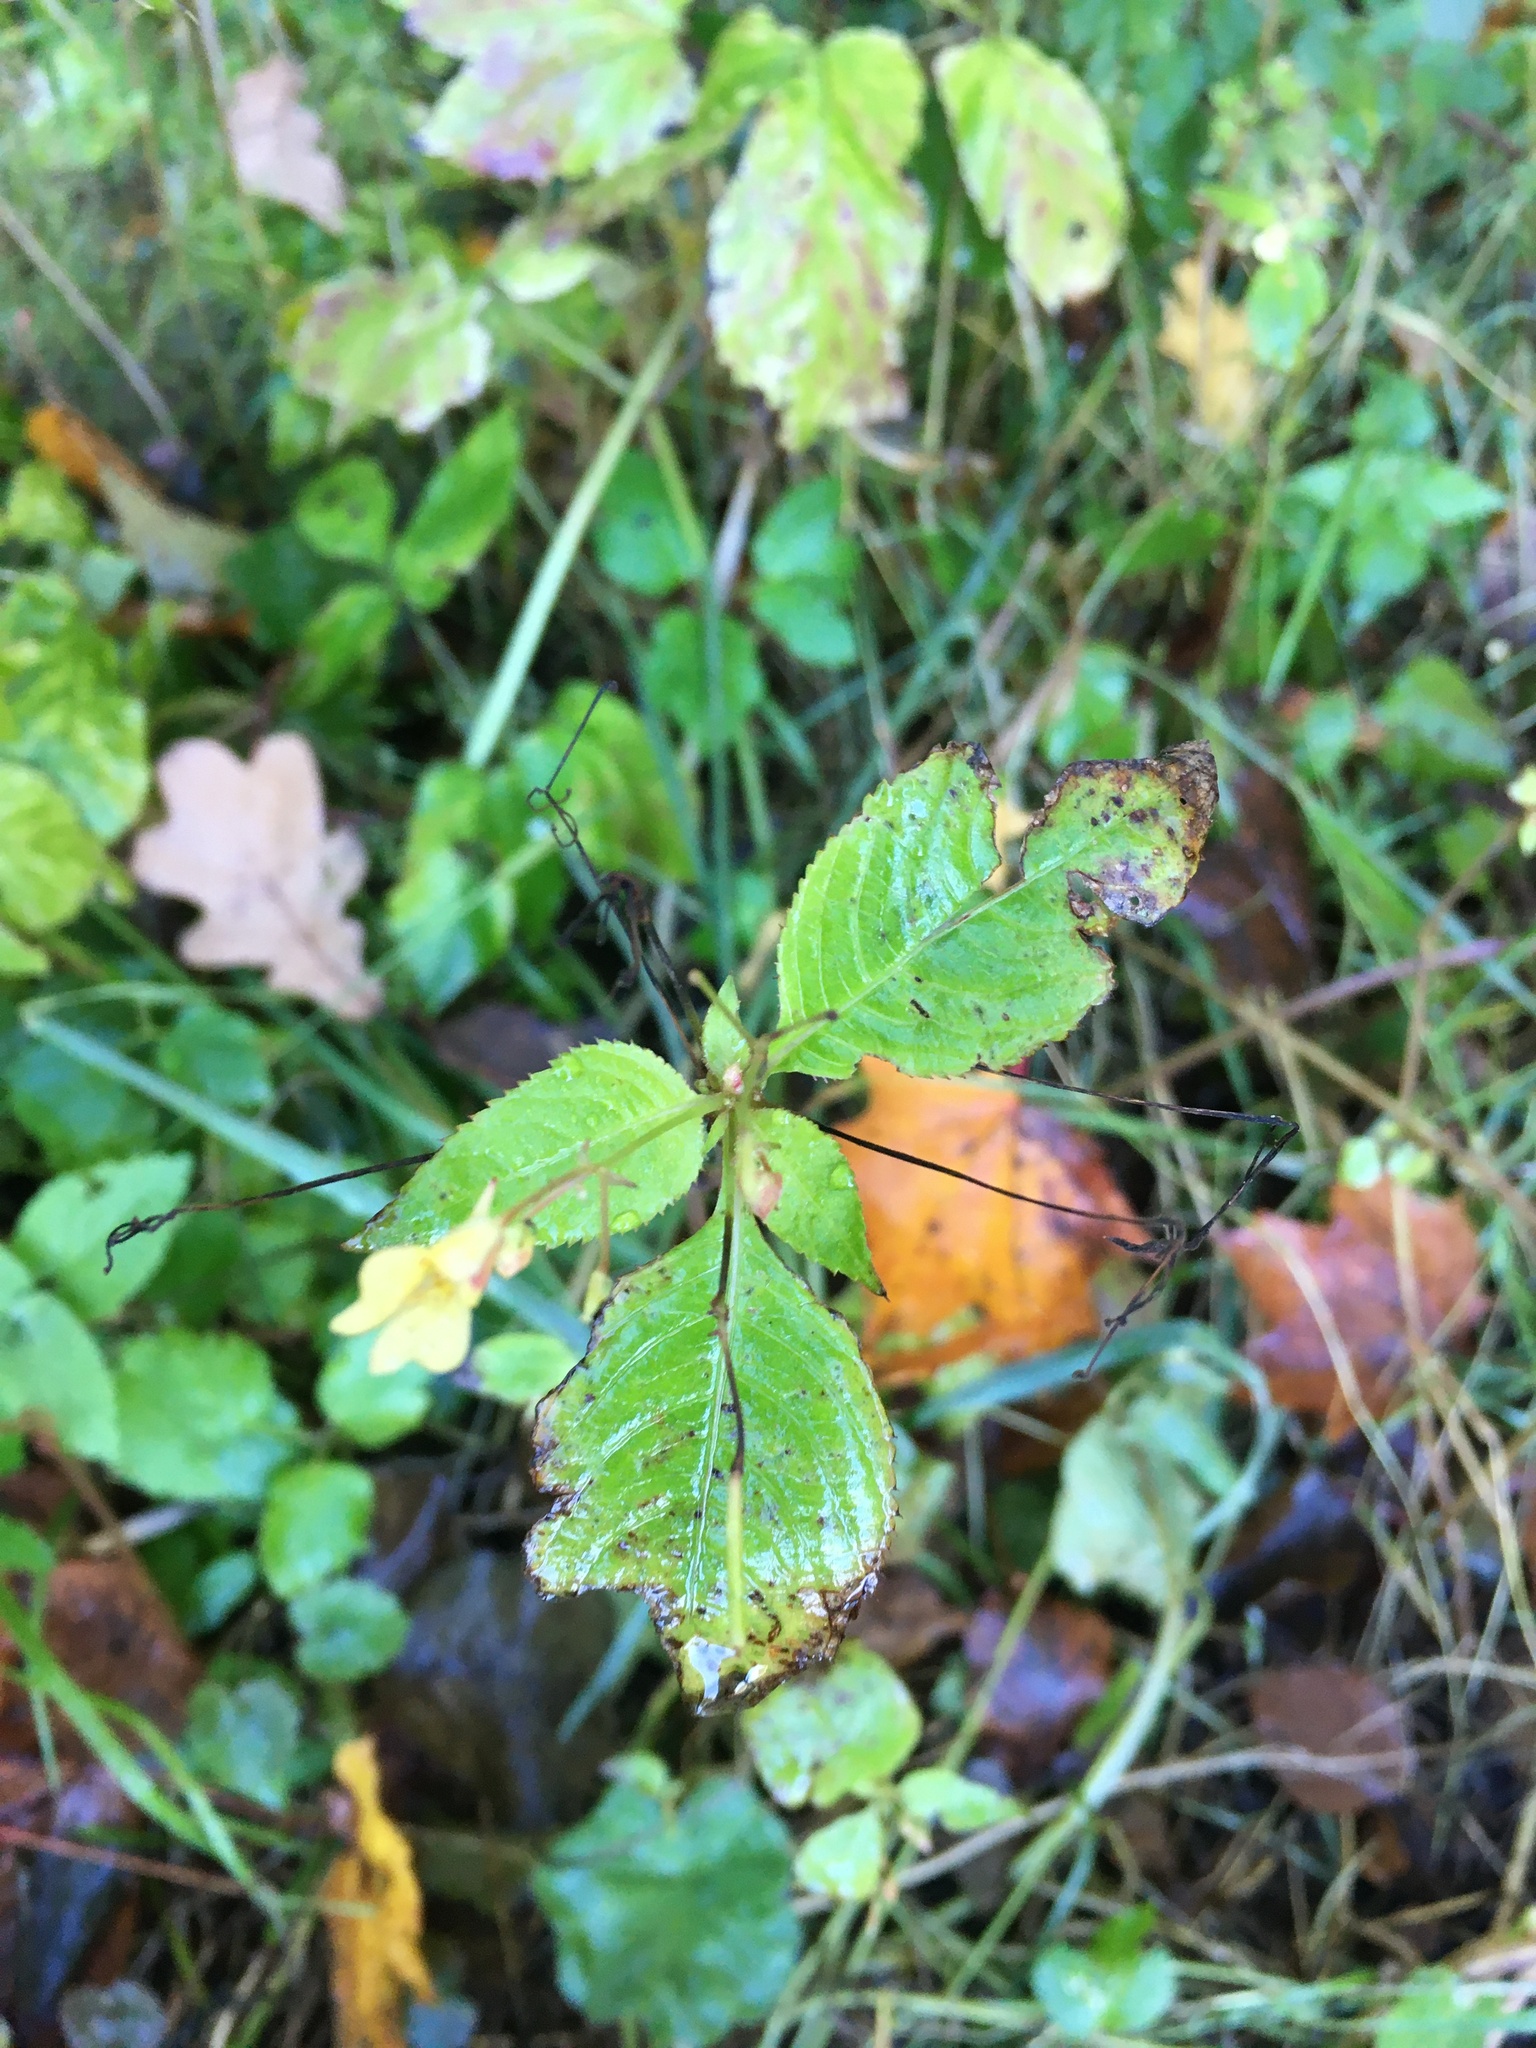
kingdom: Plantae
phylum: Tracheophyta
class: Magnoliopsida
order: Ericales
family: Balsaminaceae
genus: Impatiens
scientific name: Impatiens parviflora
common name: Small balsam
